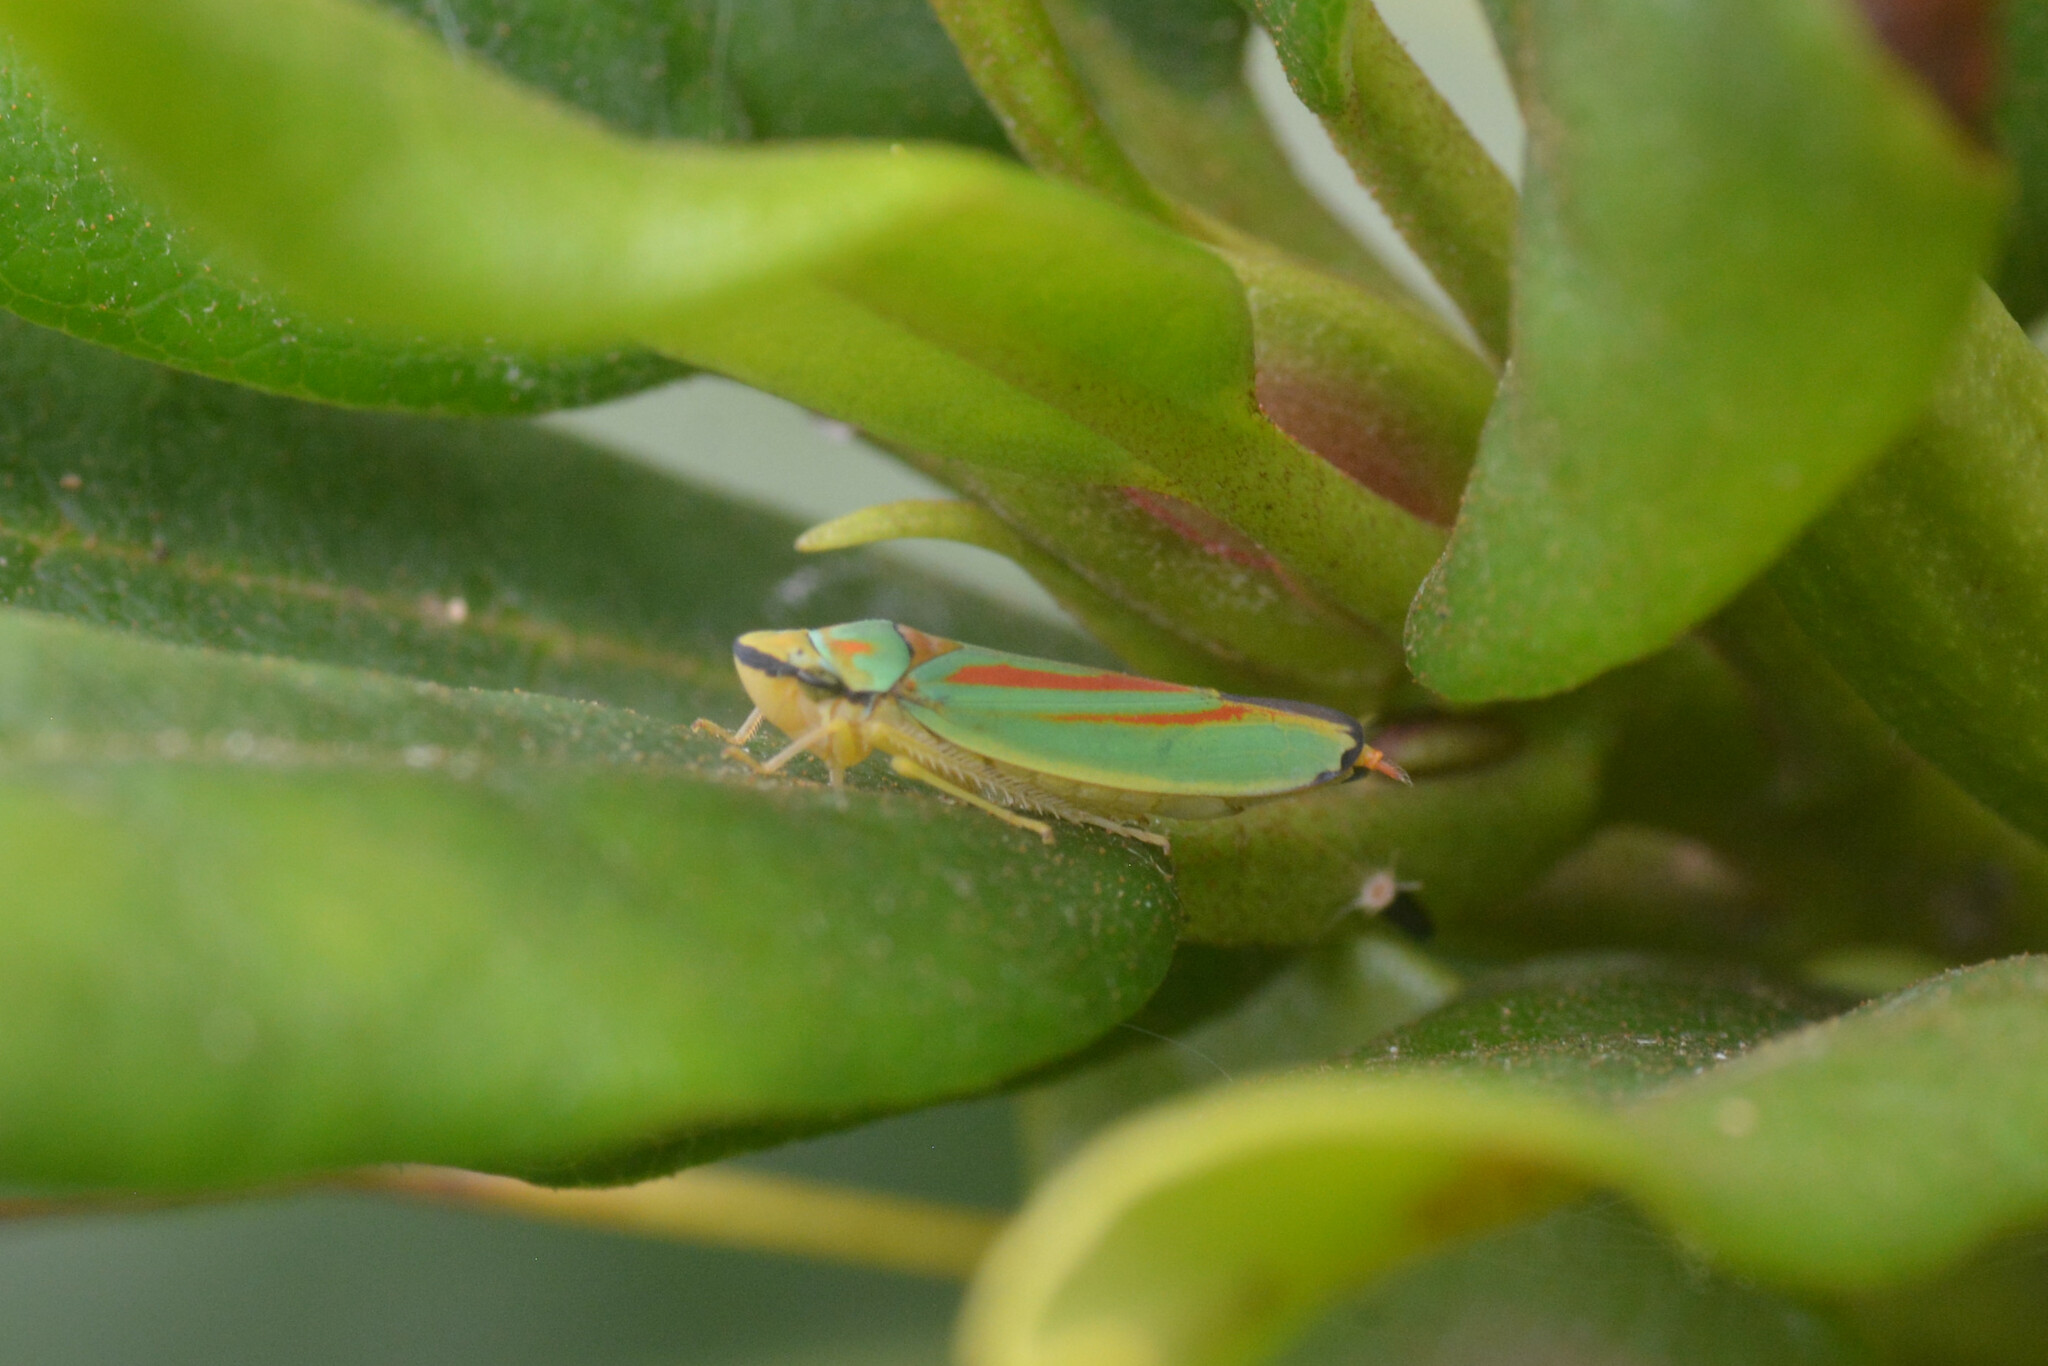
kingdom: Animalia
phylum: Arthropoda
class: Insecta
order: Hemiptera
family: Cicadellidae
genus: Graphocephala
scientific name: Graphocephala fennahi
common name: Rhododendron leafhopper
